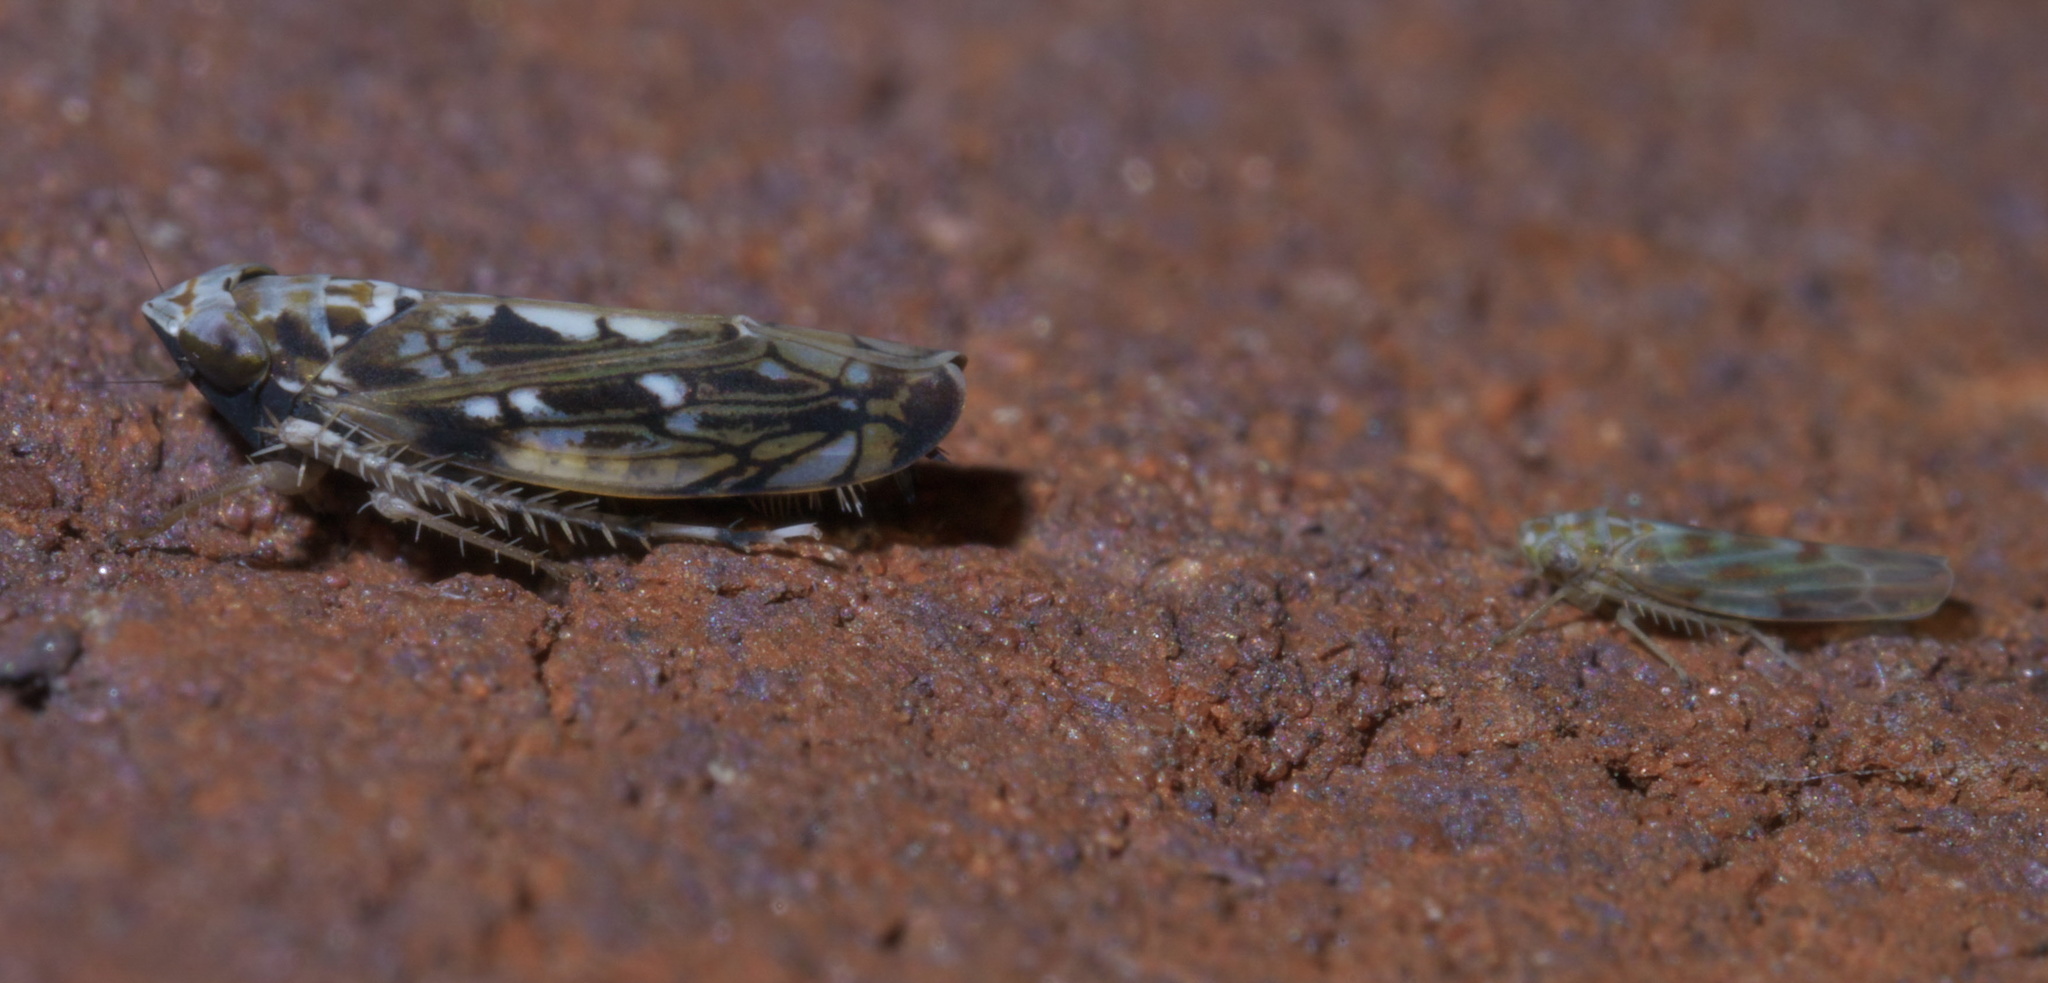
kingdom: Animalia
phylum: Arthropoda
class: Insecta
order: Hemiptera
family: Cicadellidae
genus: Scaphoideus
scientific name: Scaphoideus melanotus
